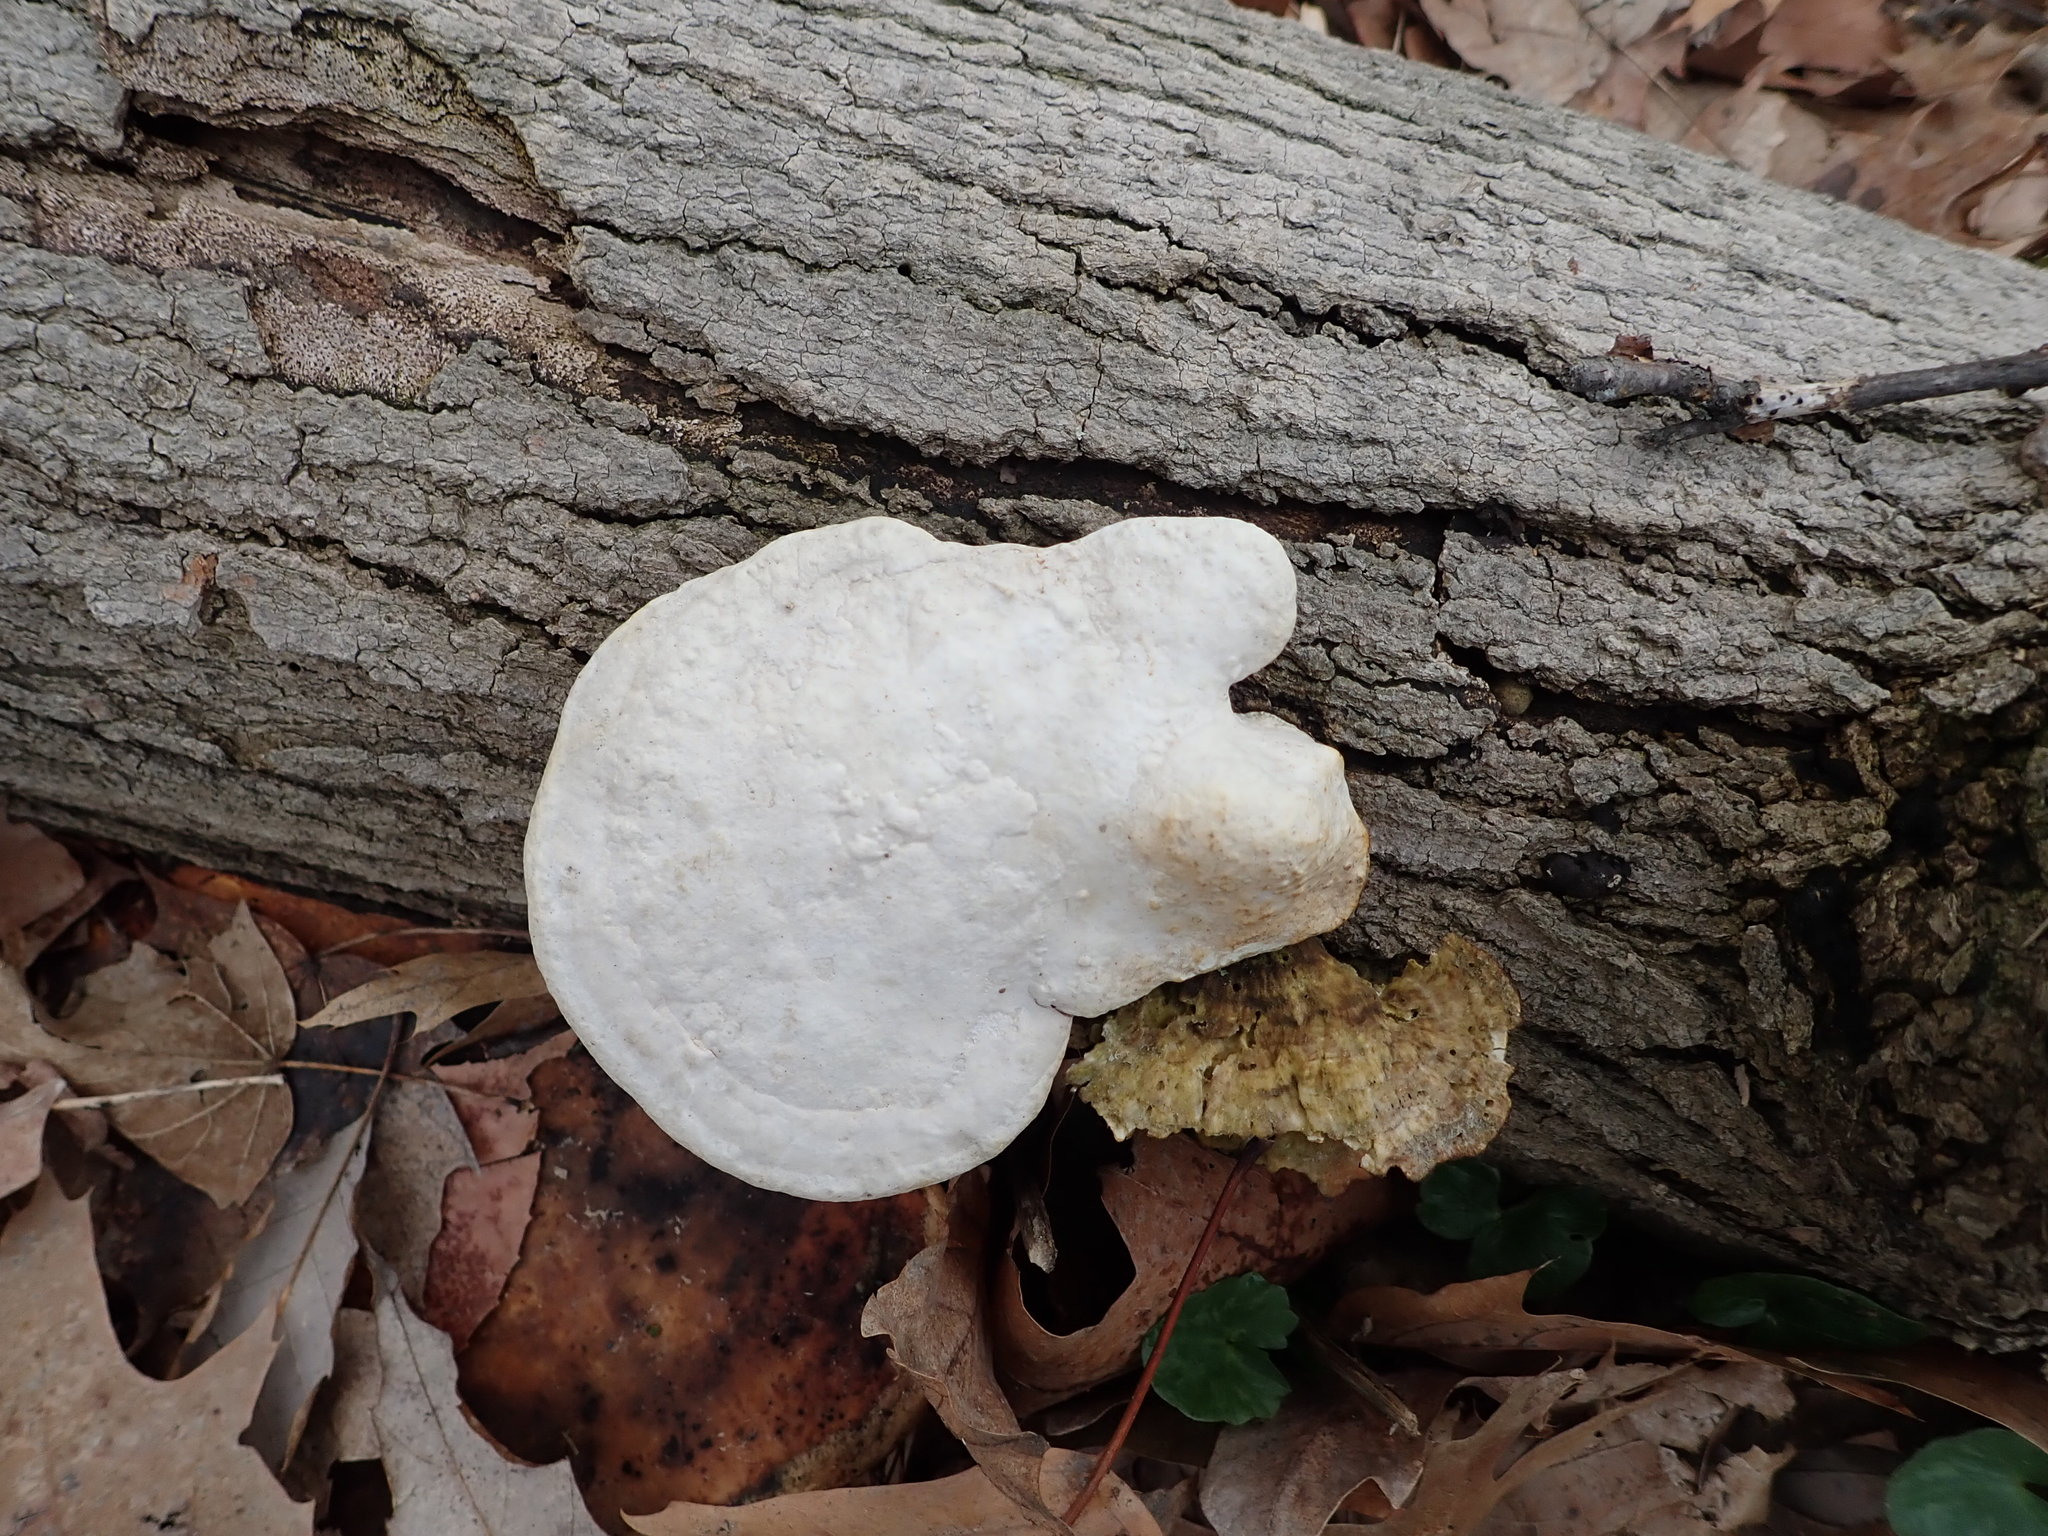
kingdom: Fungi
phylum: Basidiomycota
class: Agaricomycetes
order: Polyporales
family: Polyporaceae
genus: Trametes
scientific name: Trametes gibbosa
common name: Lumpy bracket
